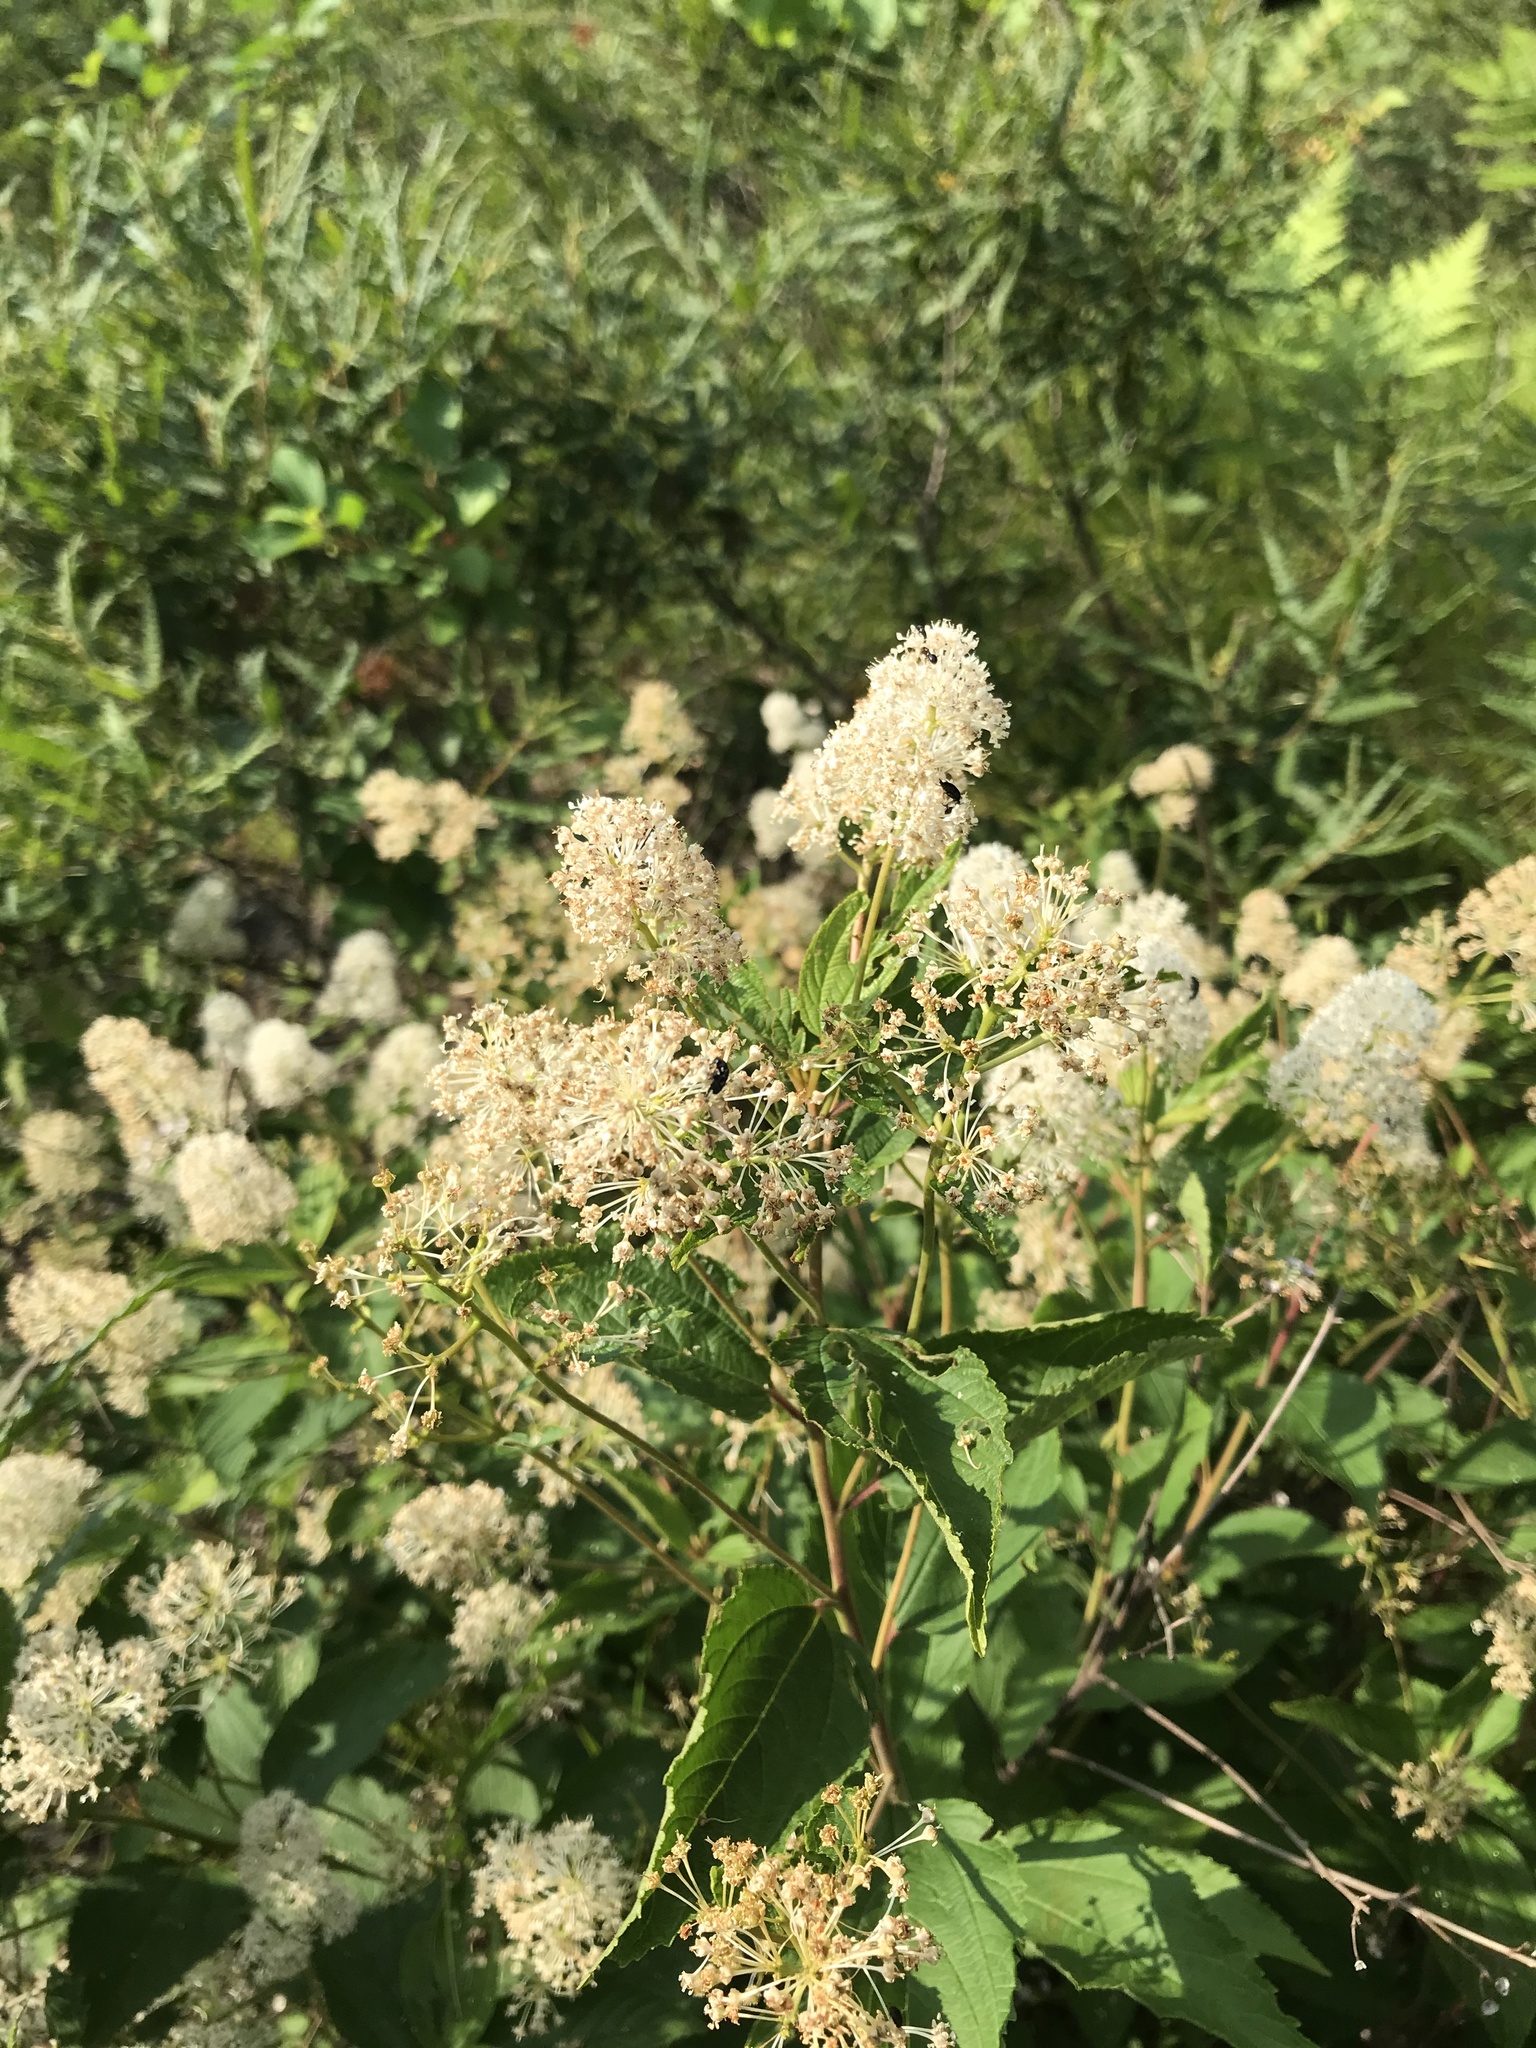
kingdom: Plantae
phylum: Tracheophyta
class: Magnoliopsida
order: Rosales
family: Rhamnaceae
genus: Ceanothus
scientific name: Ceanothus americanus
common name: Redroot
